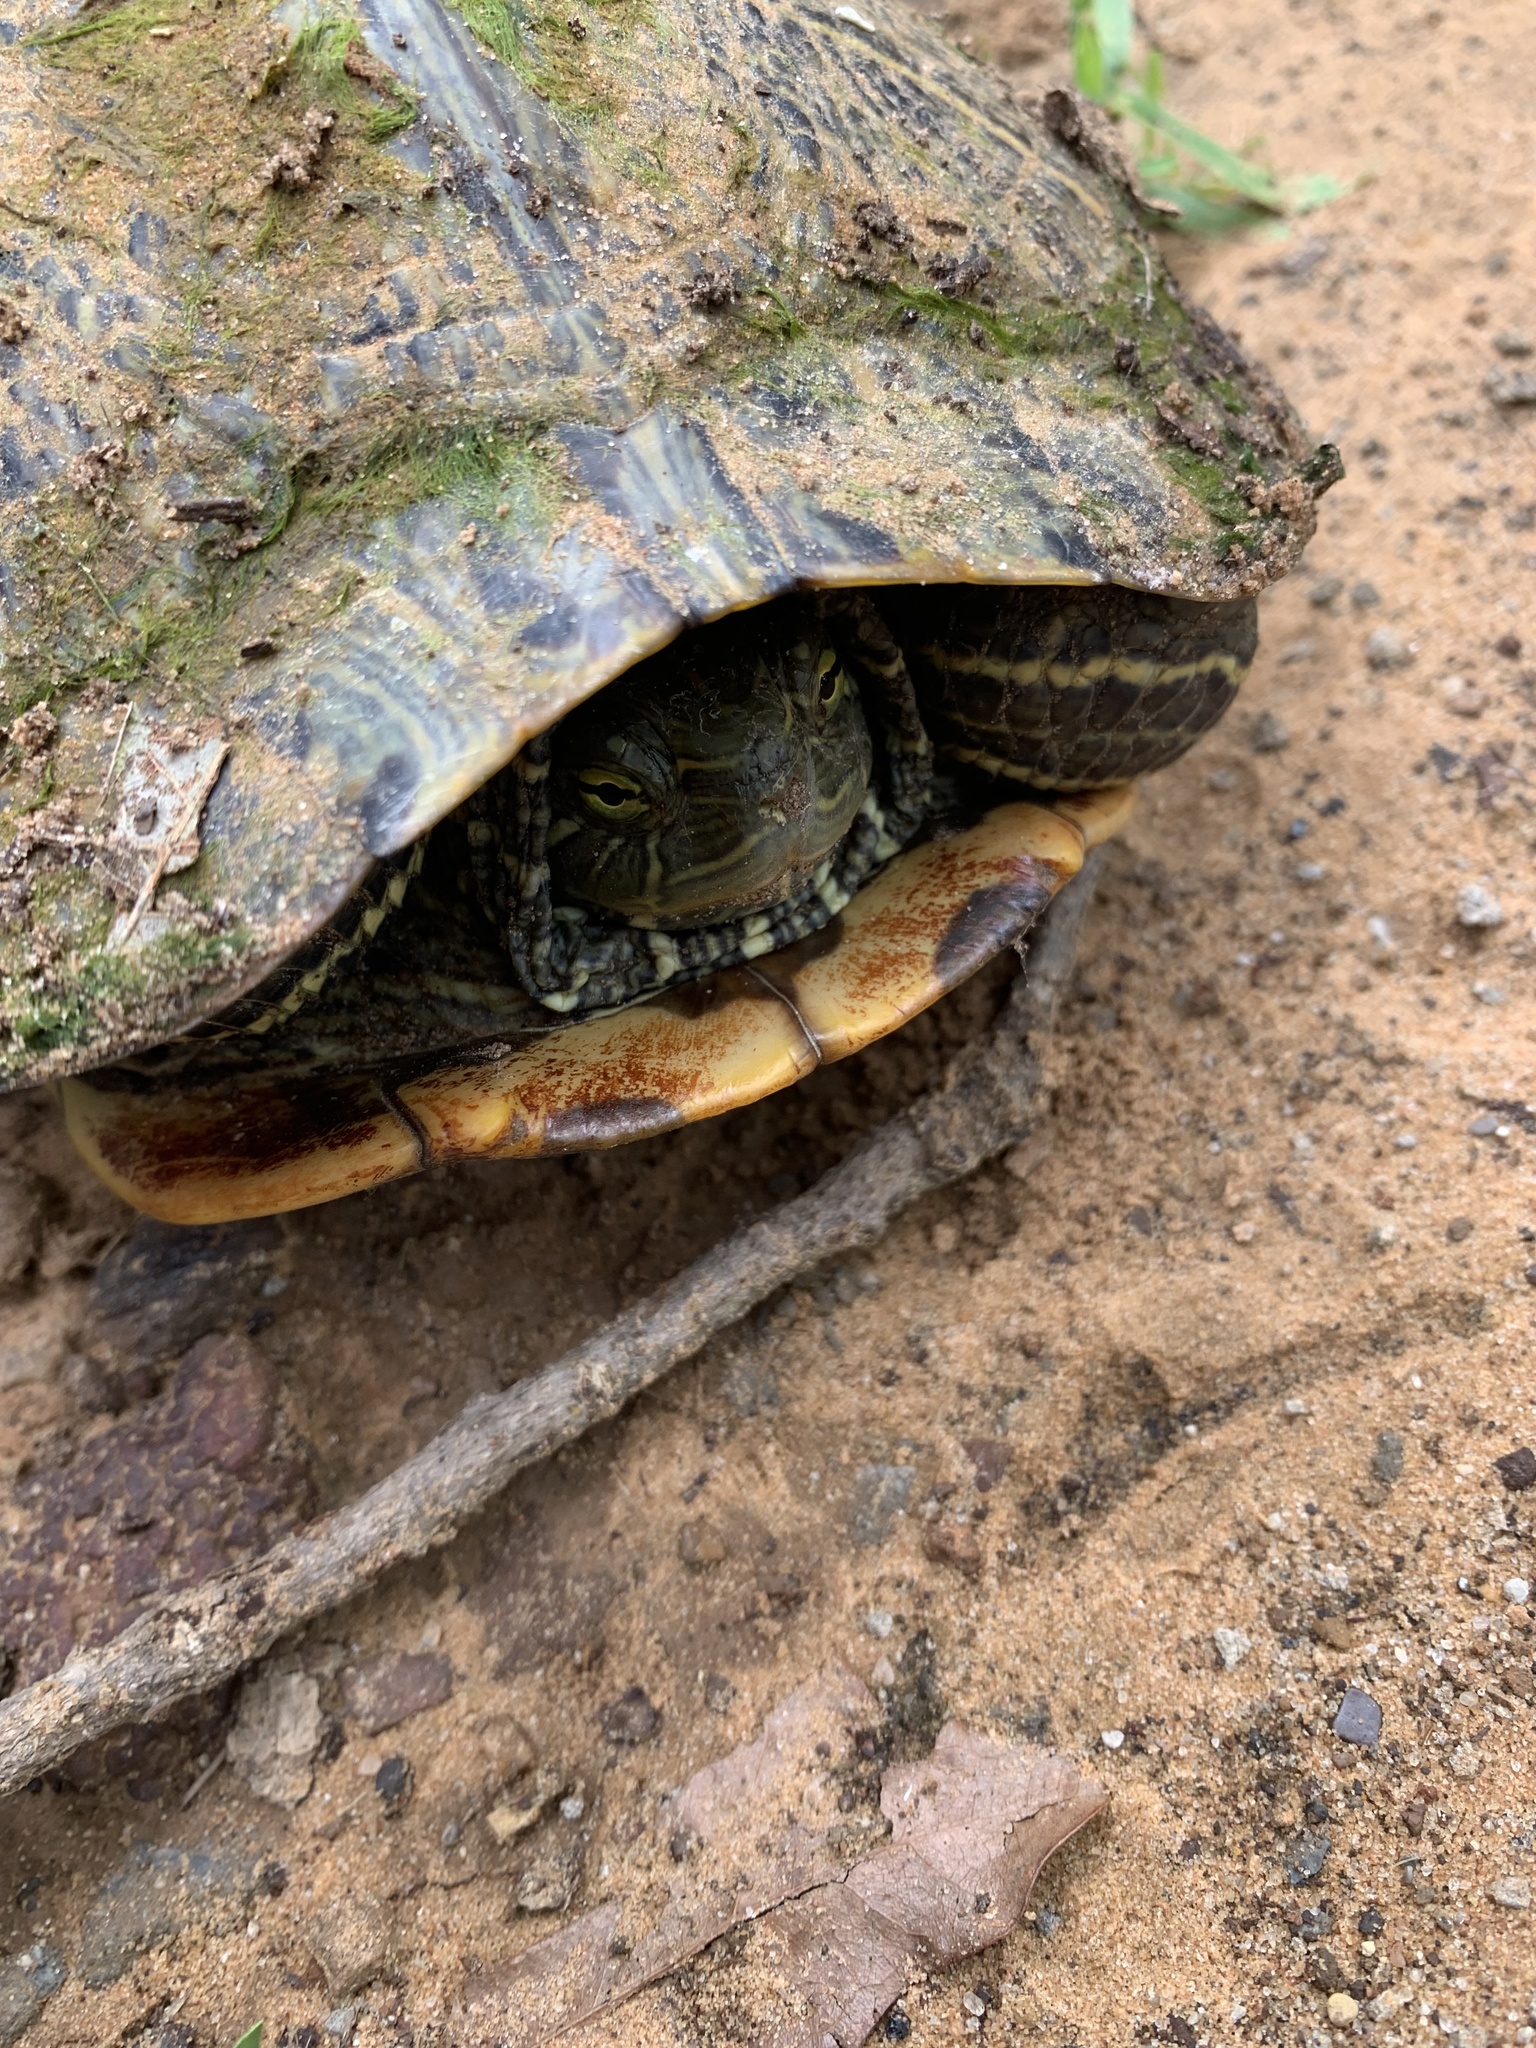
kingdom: Animalia
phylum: Chordata
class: Testudines
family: Emydidae
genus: Trachemys
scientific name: Trachemys scripta
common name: Slider
